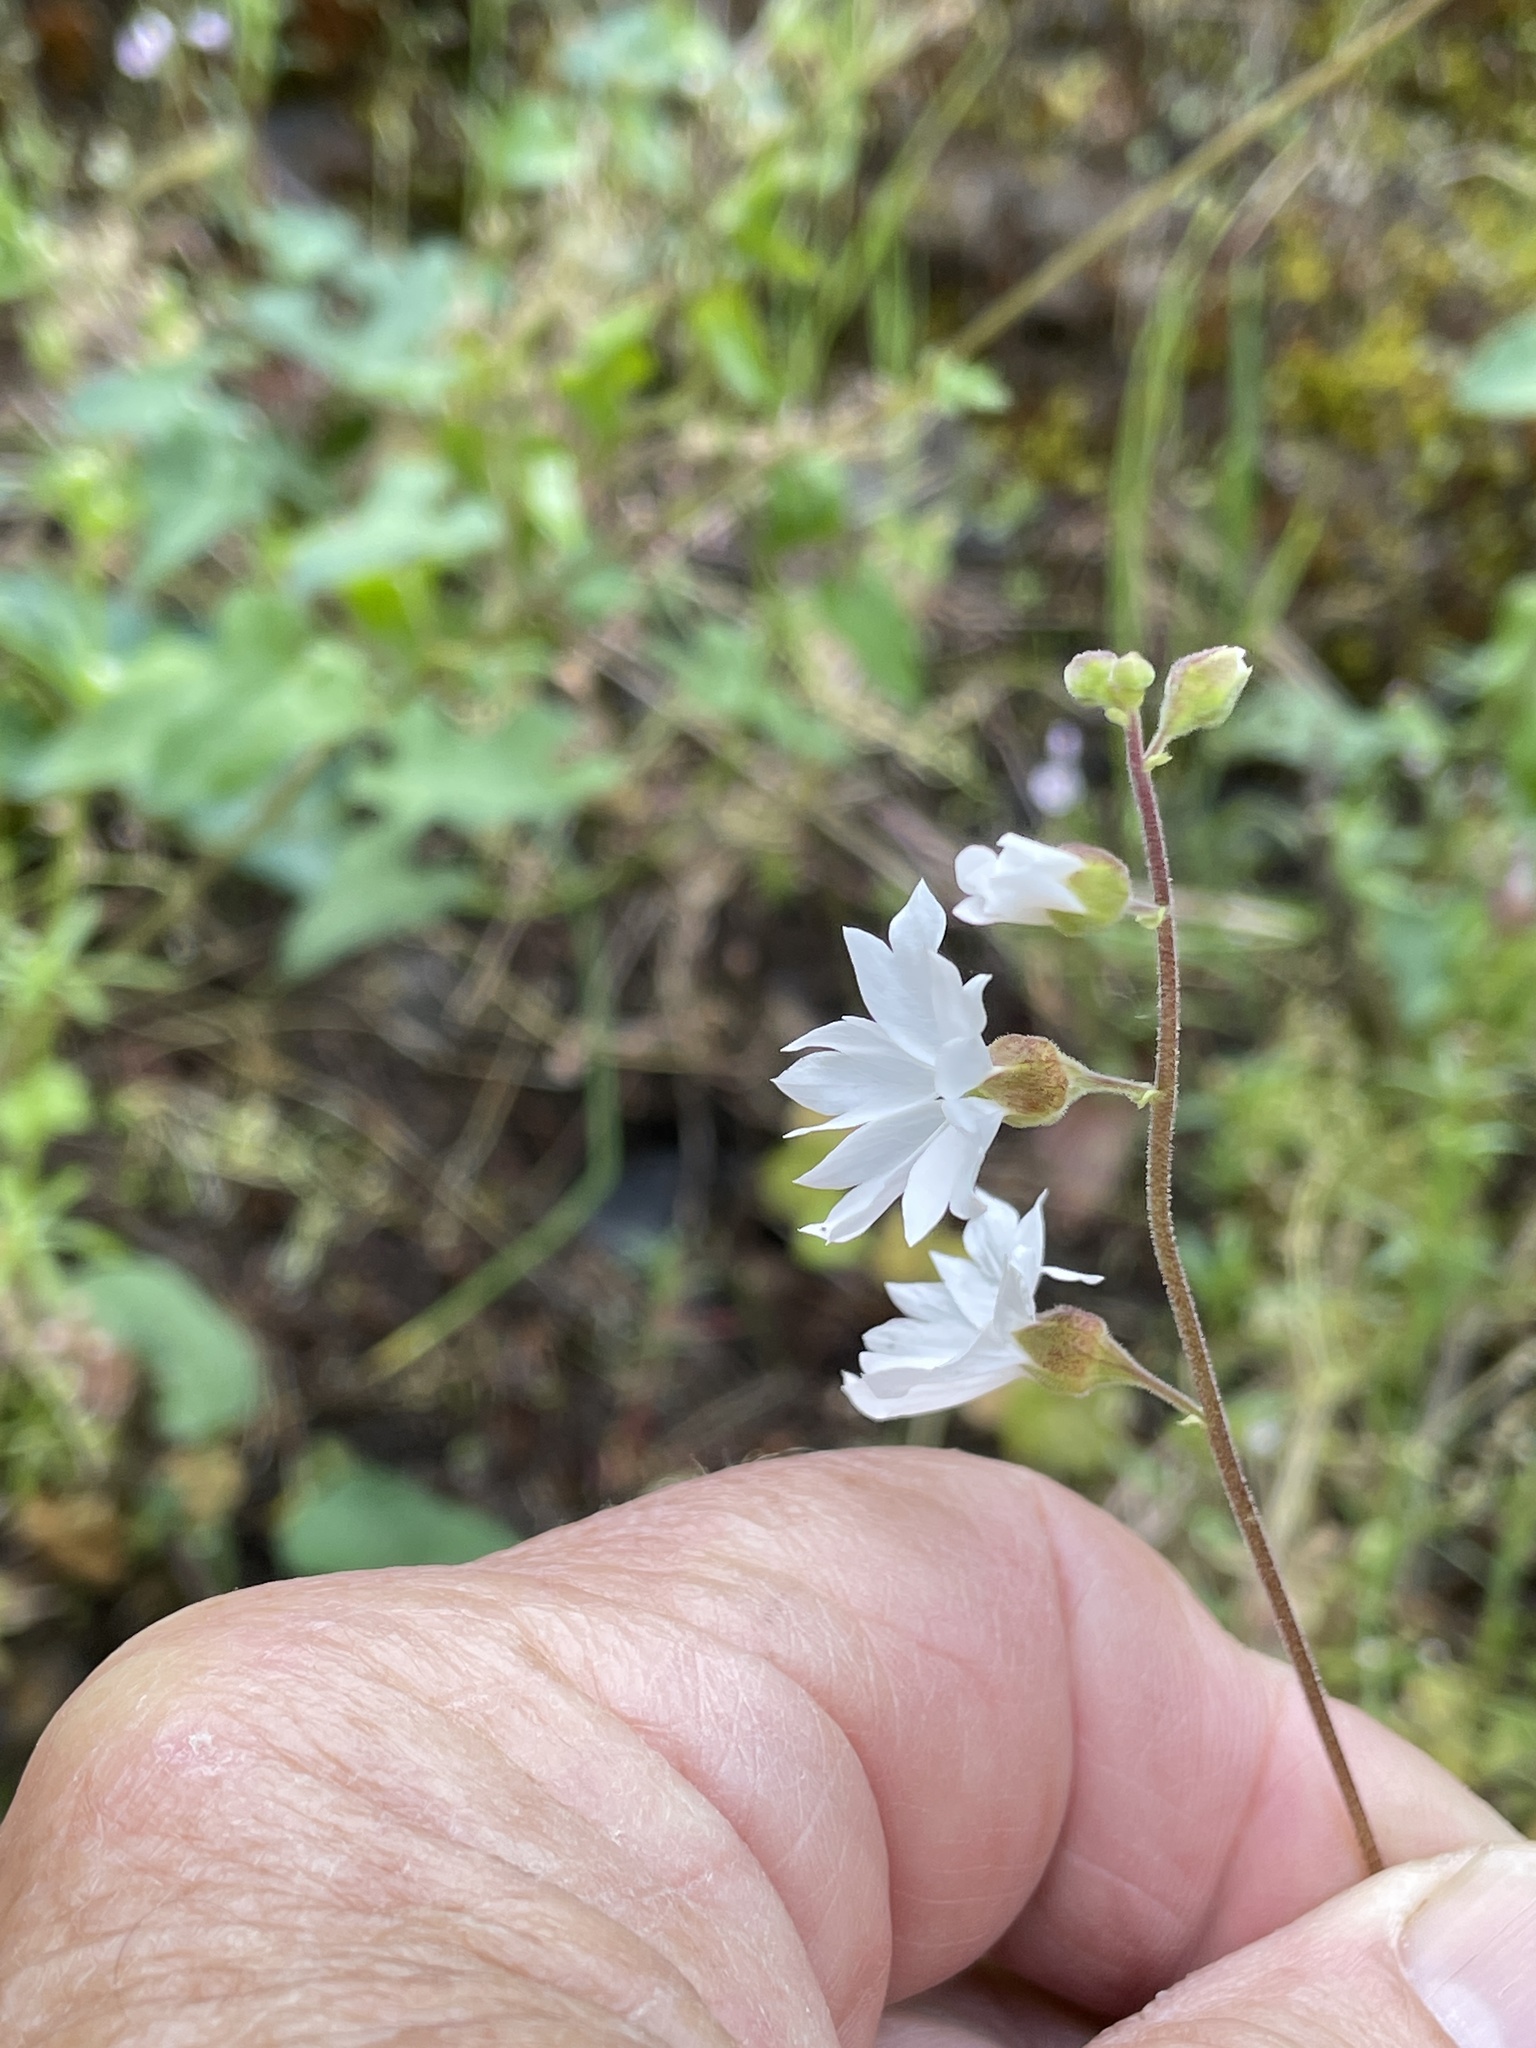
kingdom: Plantae
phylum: Tracheophyta
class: Magnoliopsida
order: Saxifragales
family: Saxifragaceae
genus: Lithophragma
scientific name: Lithophragma affine
